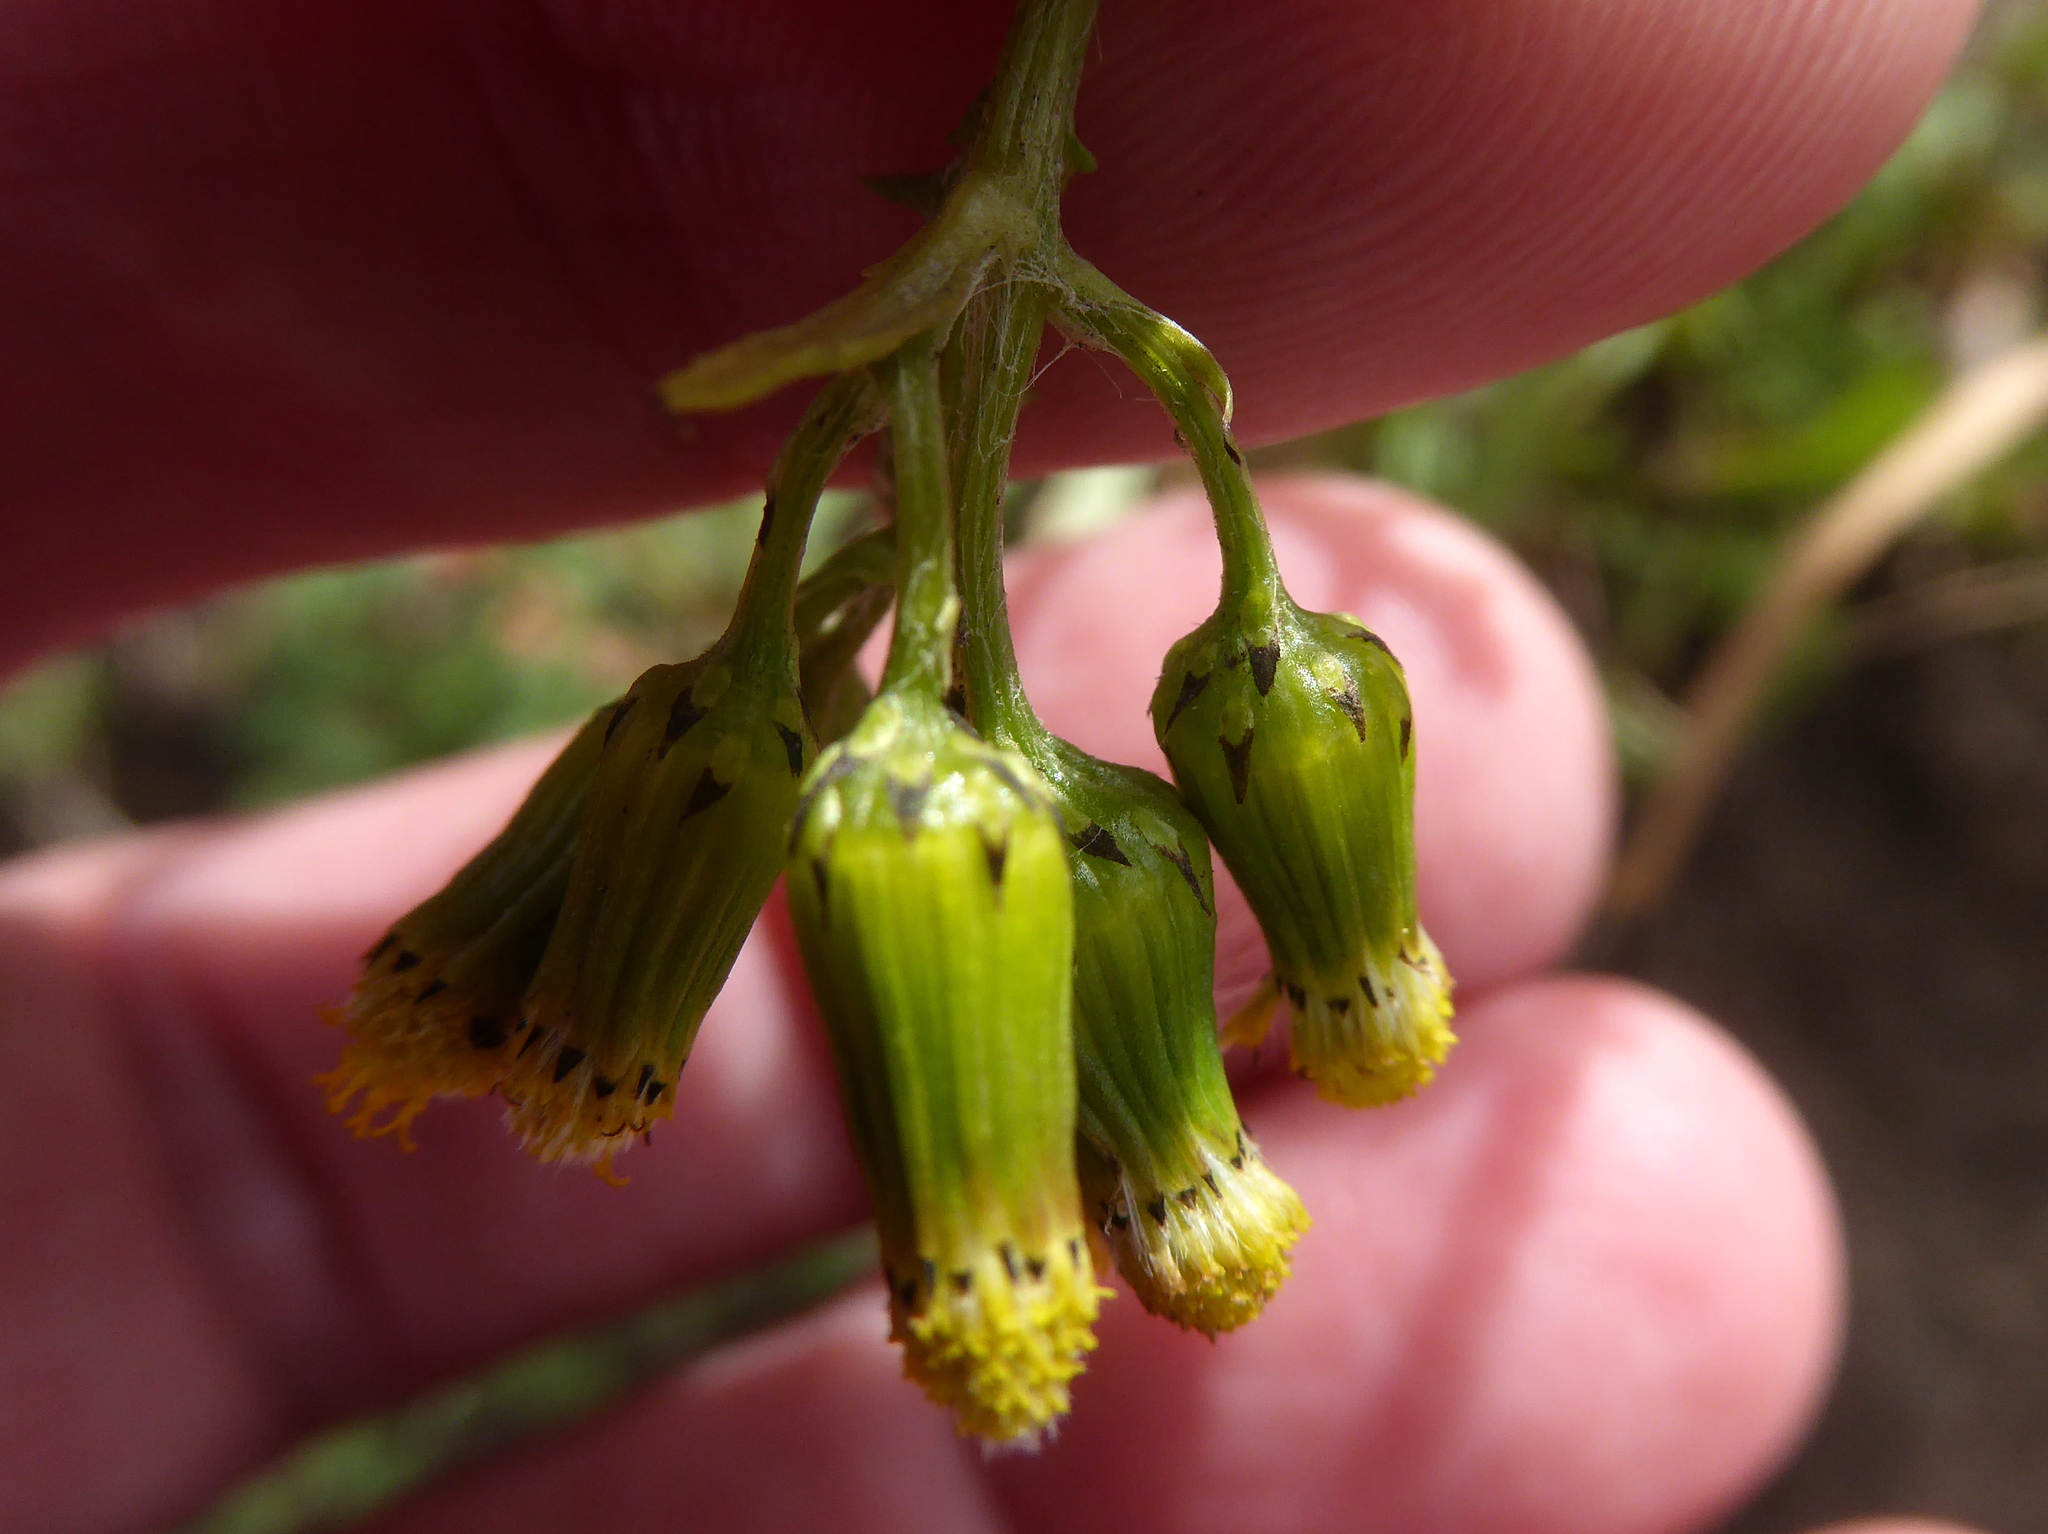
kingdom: Plantae
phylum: Tracheophyta
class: Magnoliopsida
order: Asterales
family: Asteraceae
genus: Senecio
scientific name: Senecio vulgaris
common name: Old-man-in-the-spring
